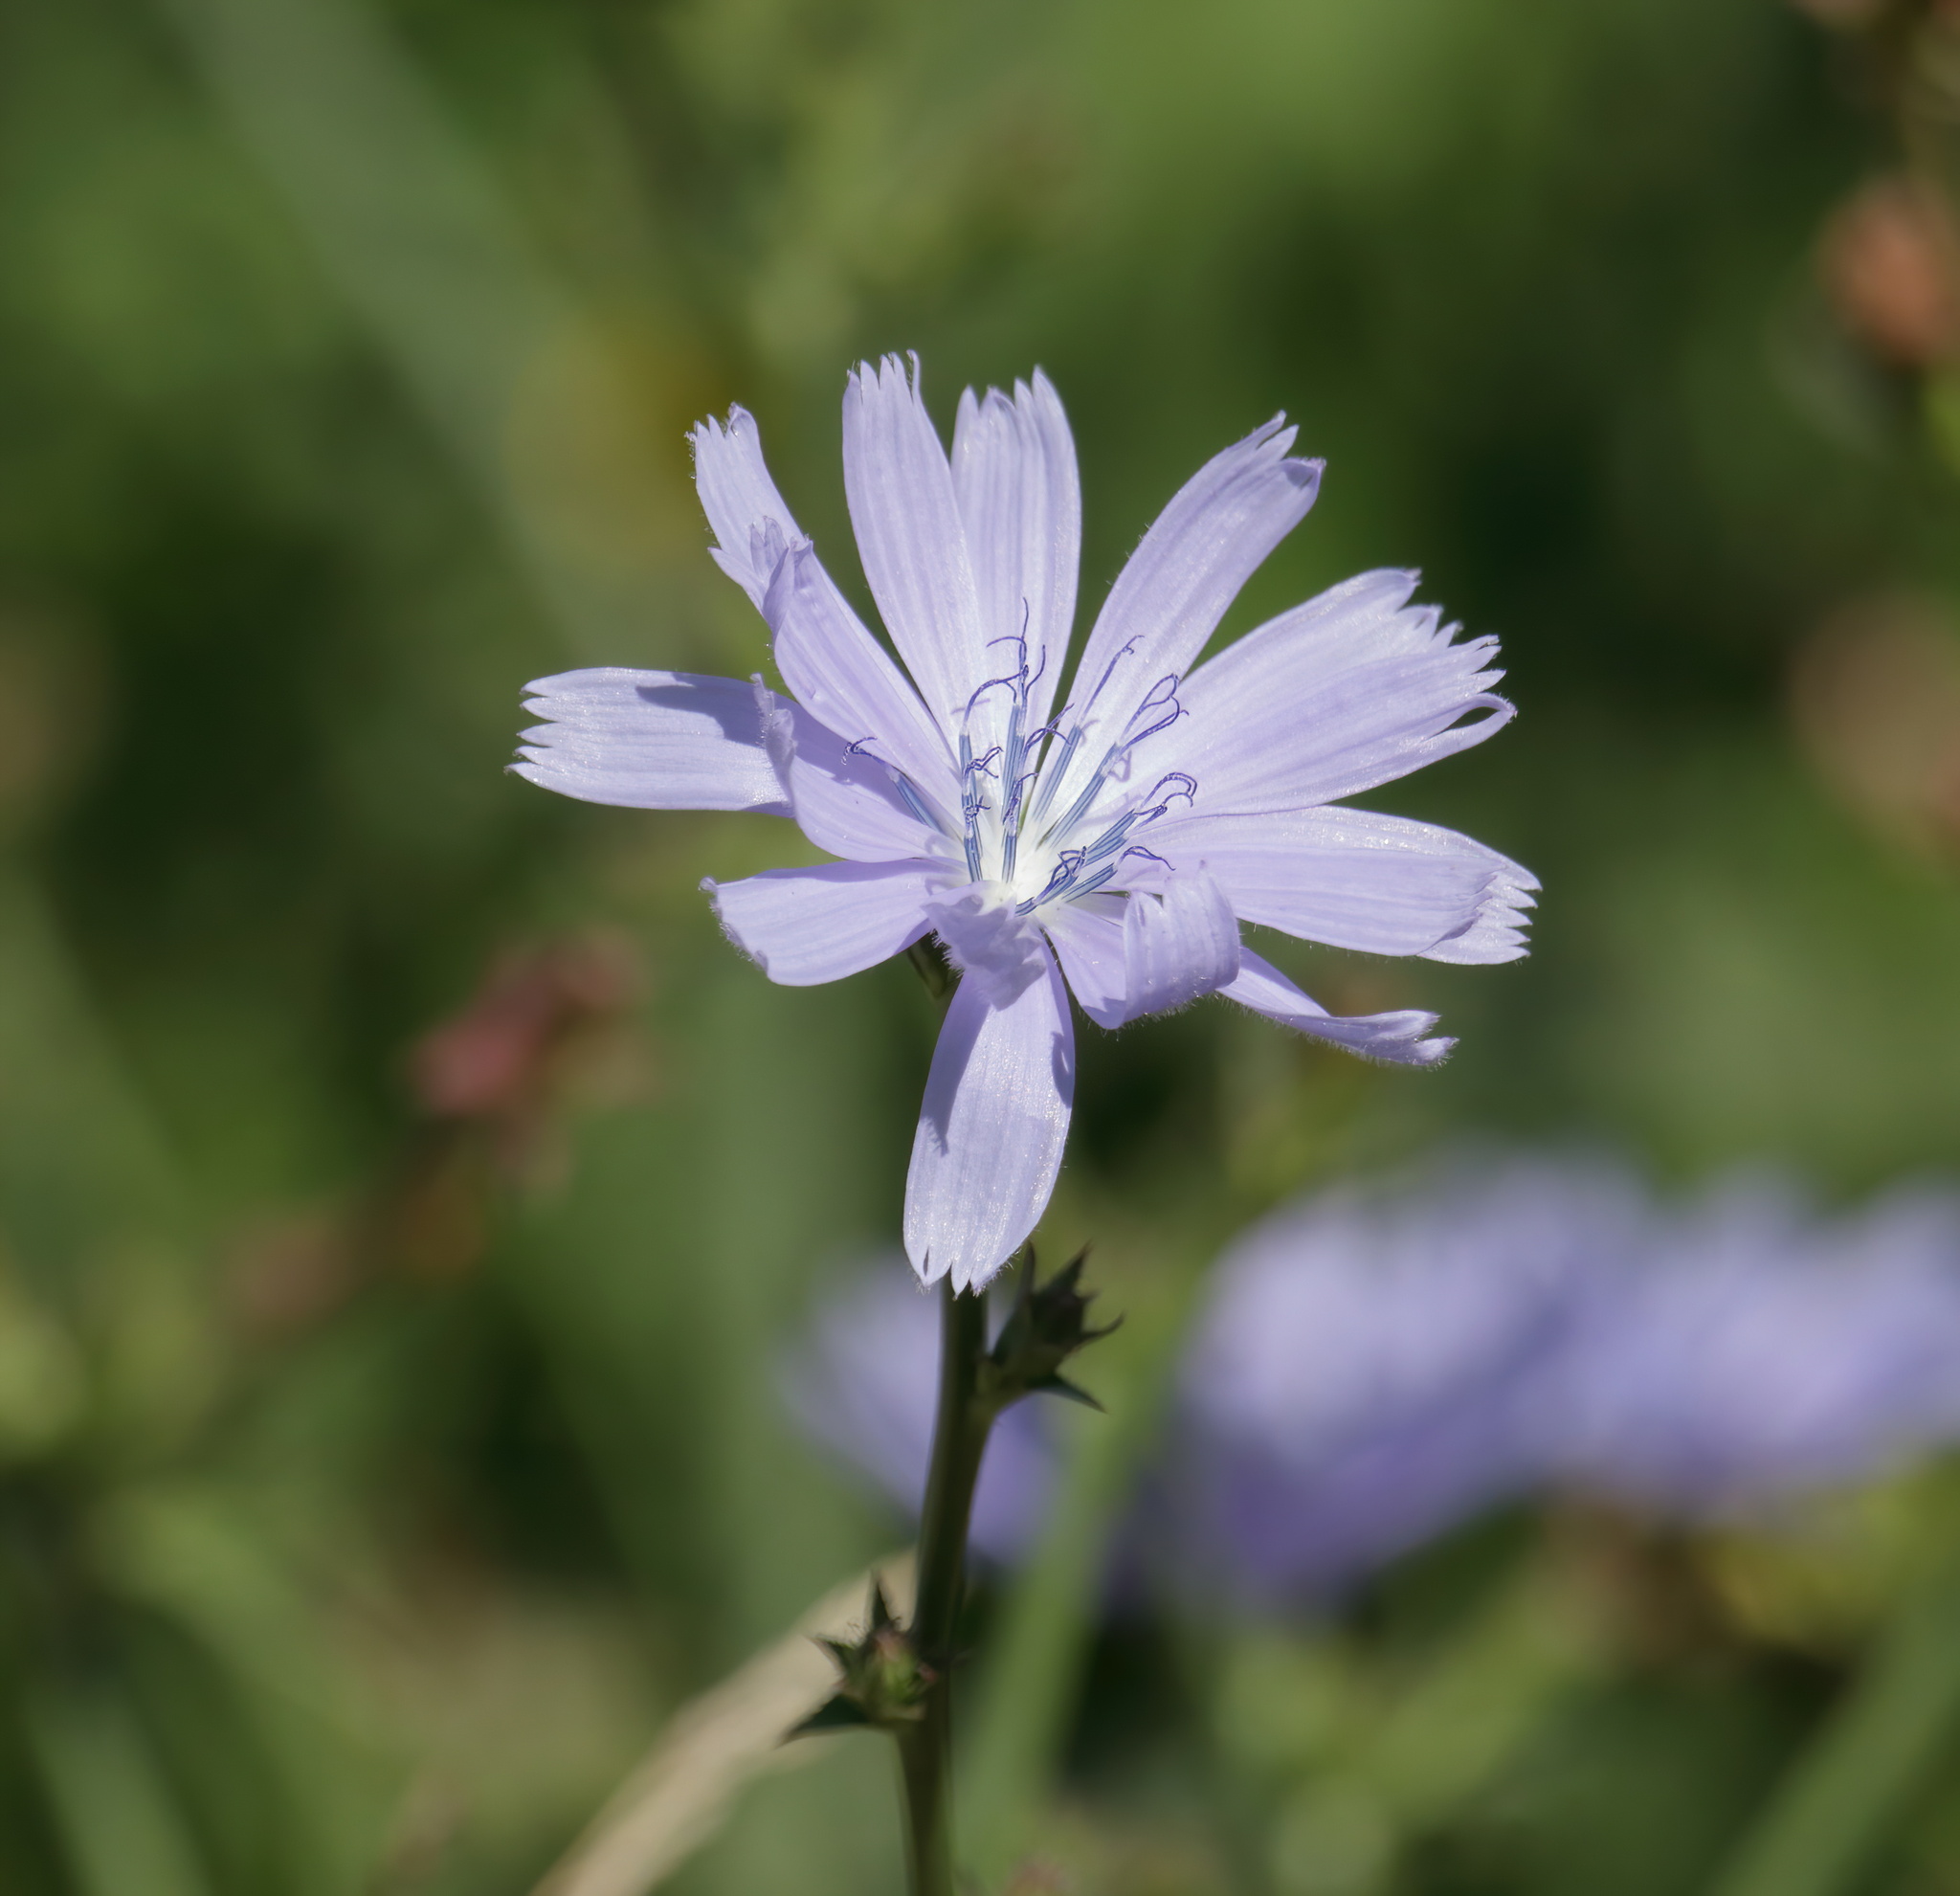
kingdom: Plantae
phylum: Tracheophyta
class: Magnoliopsida
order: Asterales
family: Asteraceae
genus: Cichorium
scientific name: Cichorium intybus
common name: Chicory
